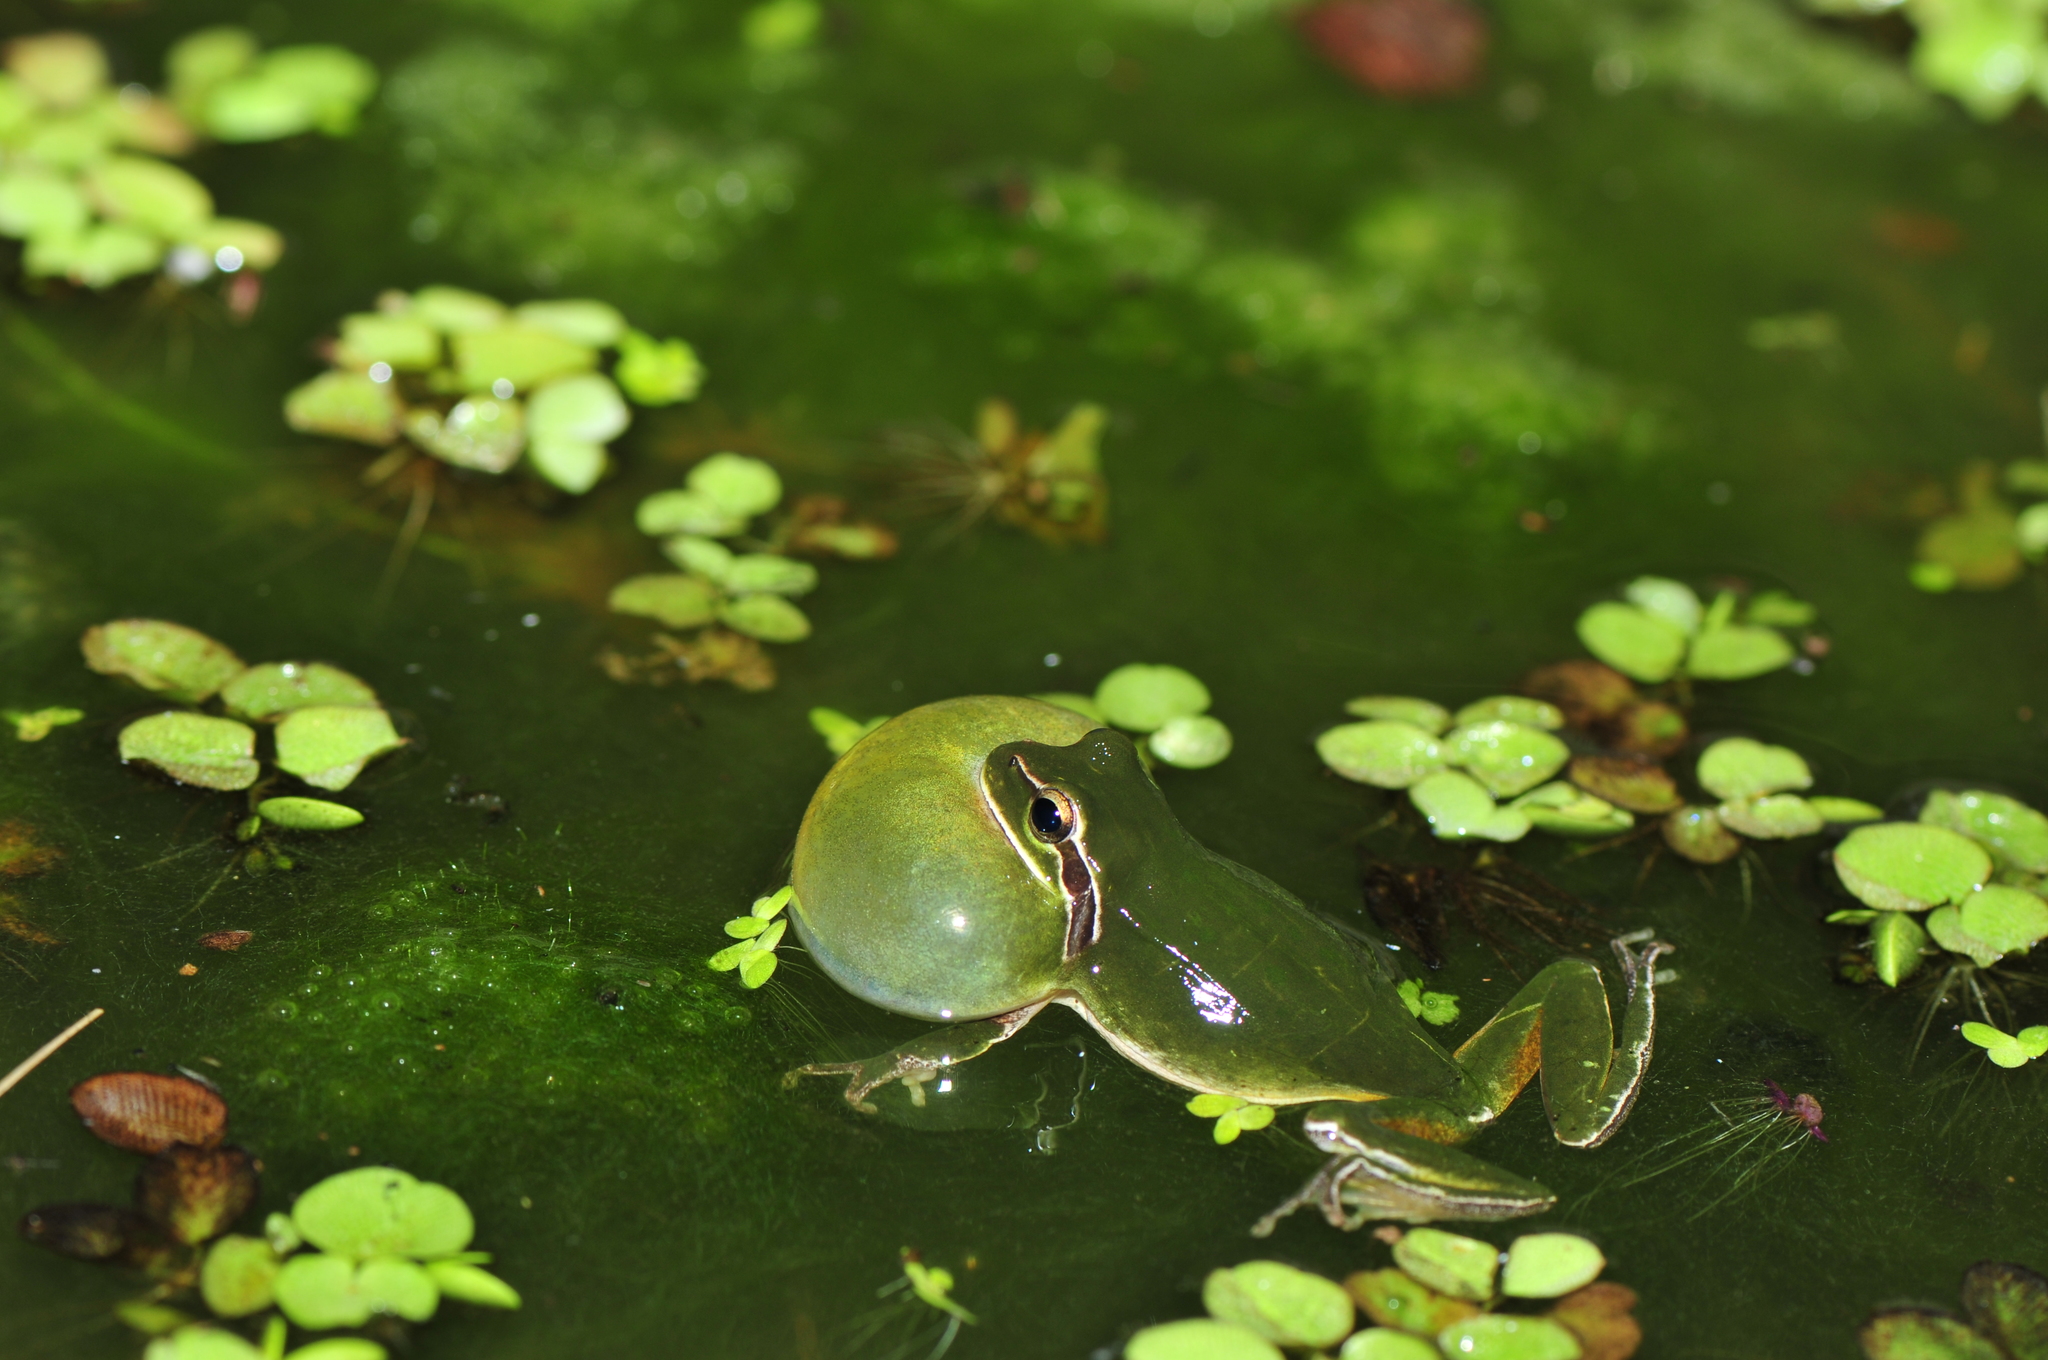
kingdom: Animalia
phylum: Chordata
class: Amphibia
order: Anura
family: Hylidae
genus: Hyla
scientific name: Hyla meridionalis
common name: Stripeless tree frog
